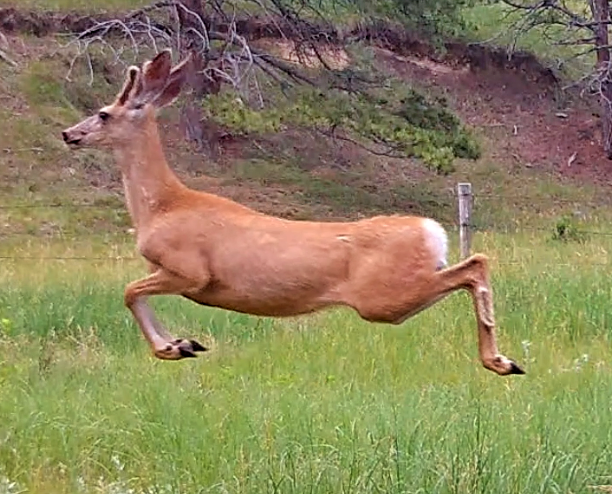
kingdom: Animalia
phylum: Chordata
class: Mammalia
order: Artiodactyla
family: Cervidae
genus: Odocoileus
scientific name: Odocoileus hemionus
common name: Mule deer
